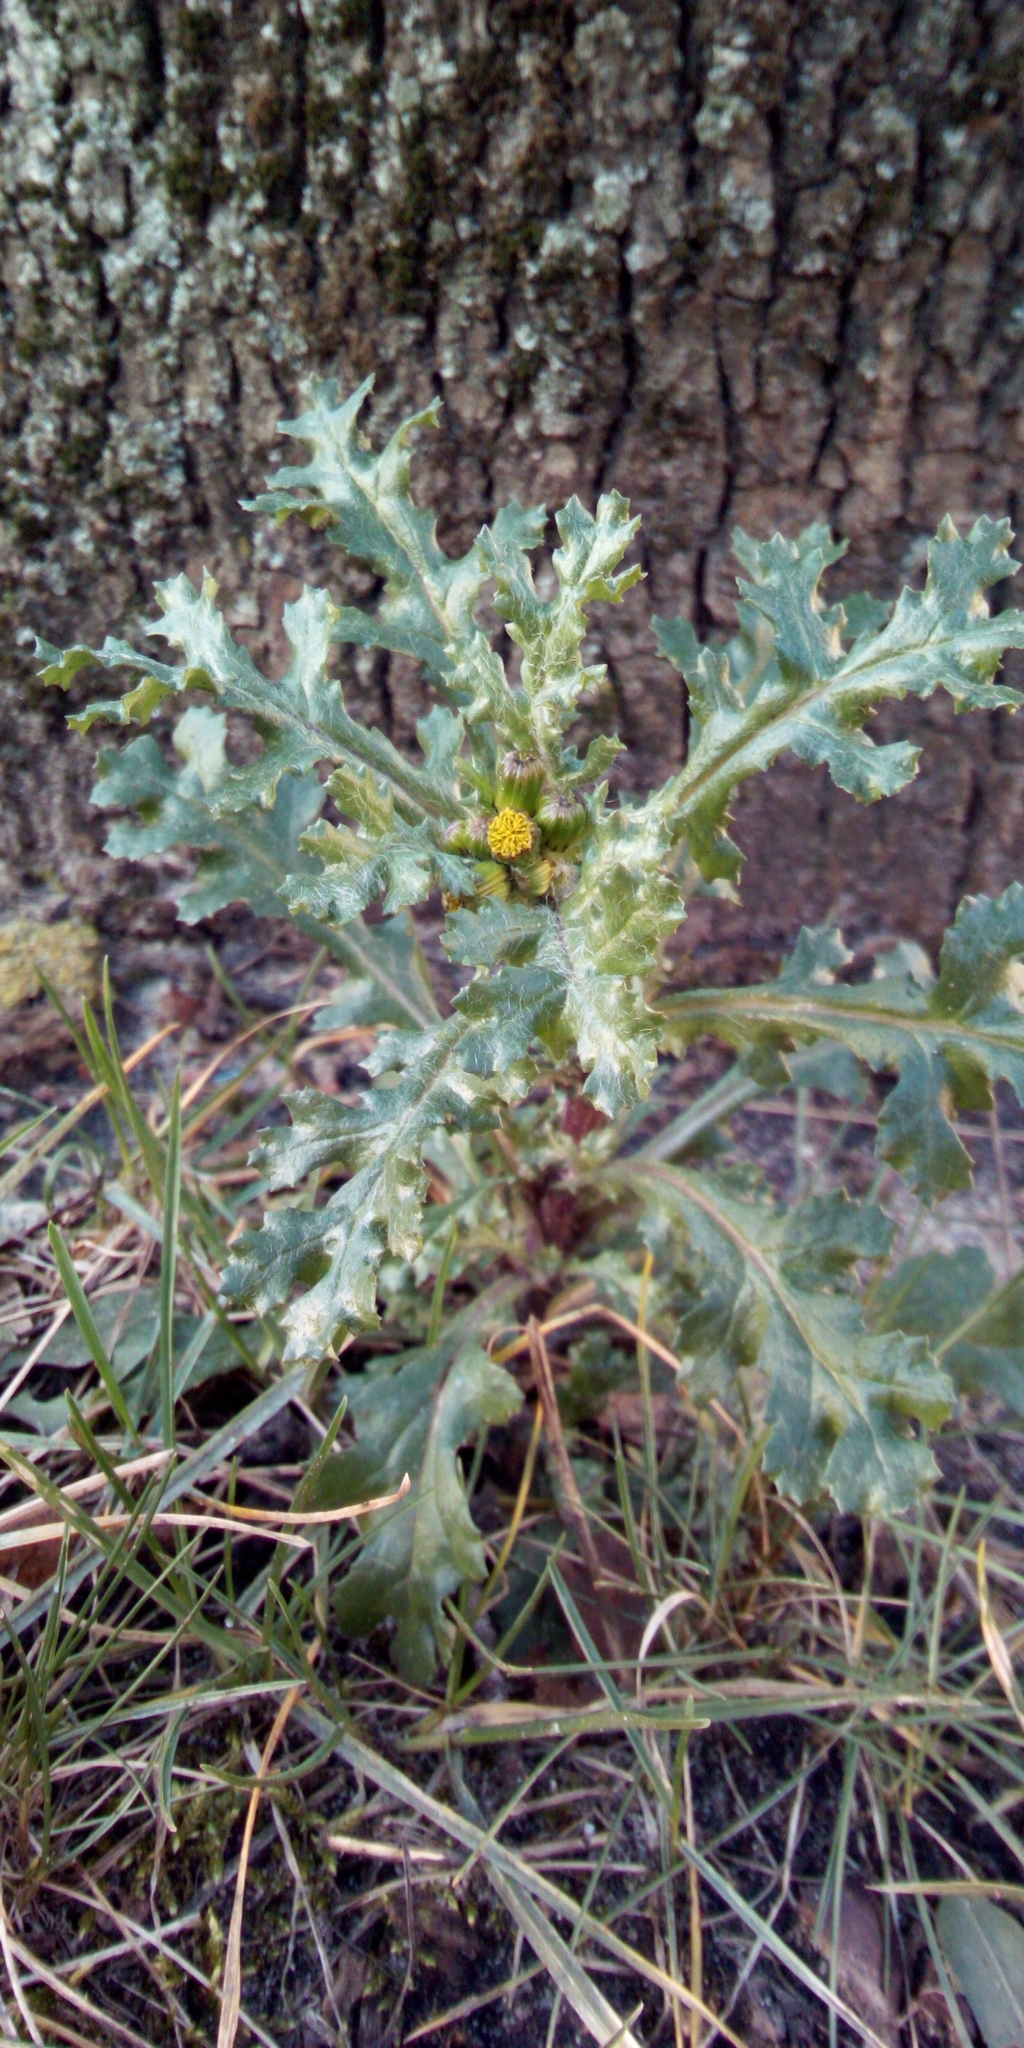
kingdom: Plantae
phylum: Tracheophyta
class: Magnoliopsida
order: Asterales
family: Asteraceae
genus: Senecio
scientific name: Senecio vulgaris
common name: Old-man-in-the-spring
